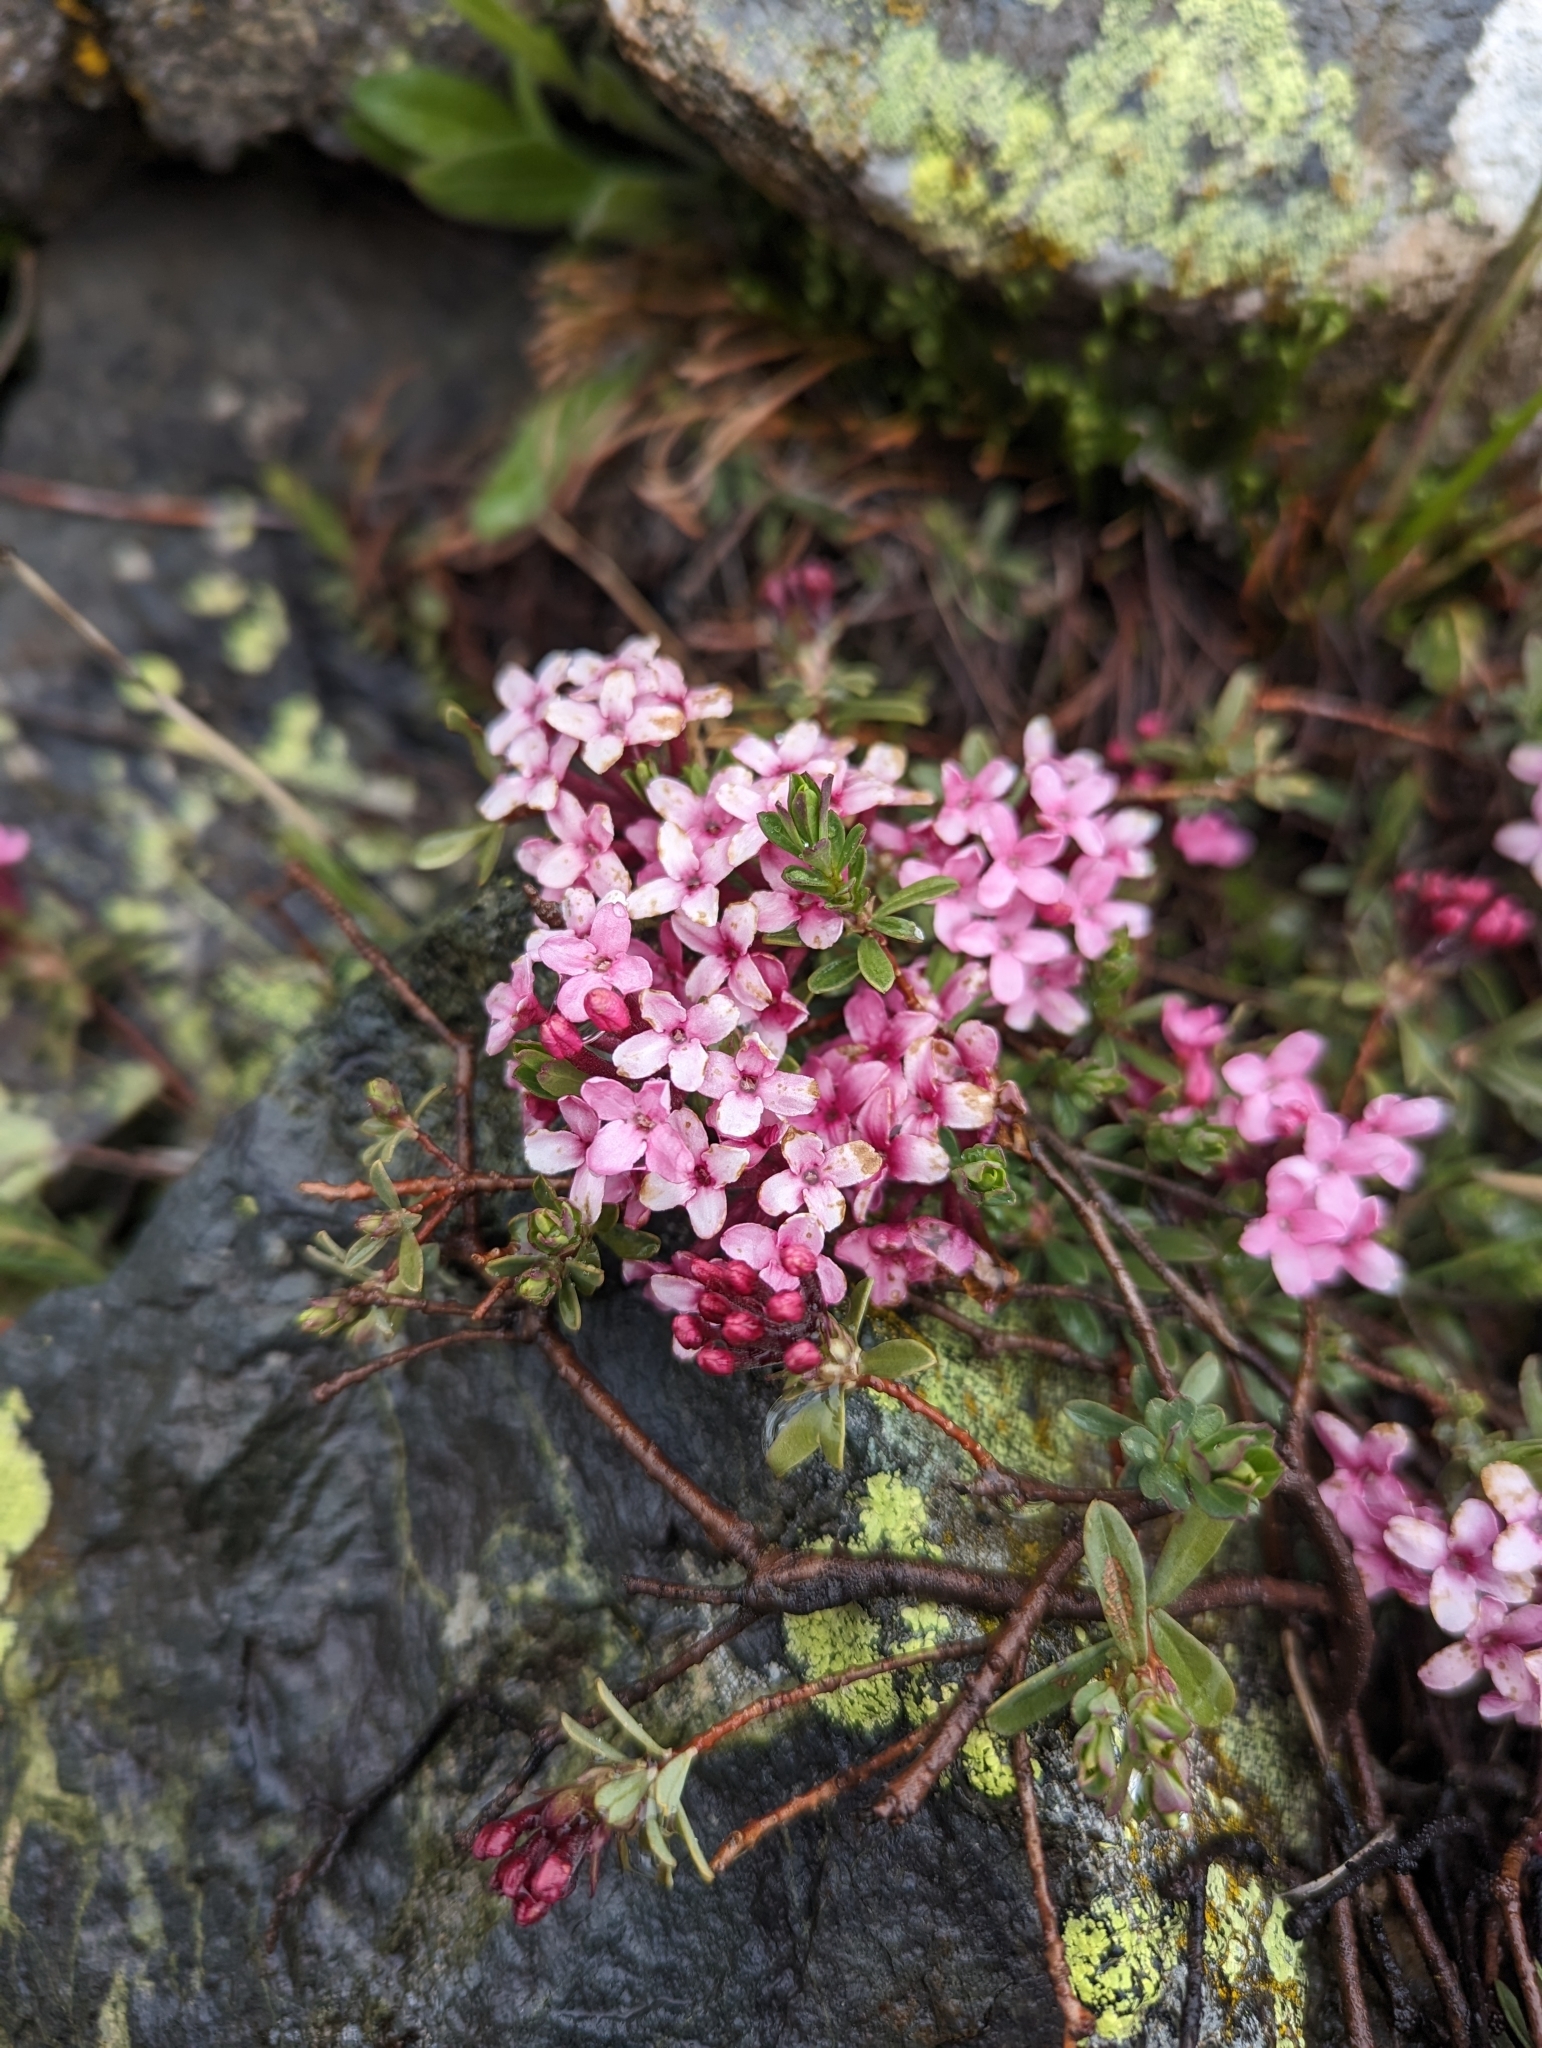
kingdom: Plantae
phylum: Tracheophyta
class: Magnoliopsida
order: Malvales
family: Thymelaeaceae
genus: Daphne
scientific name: Daphne cneorum
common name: Garland-flower
